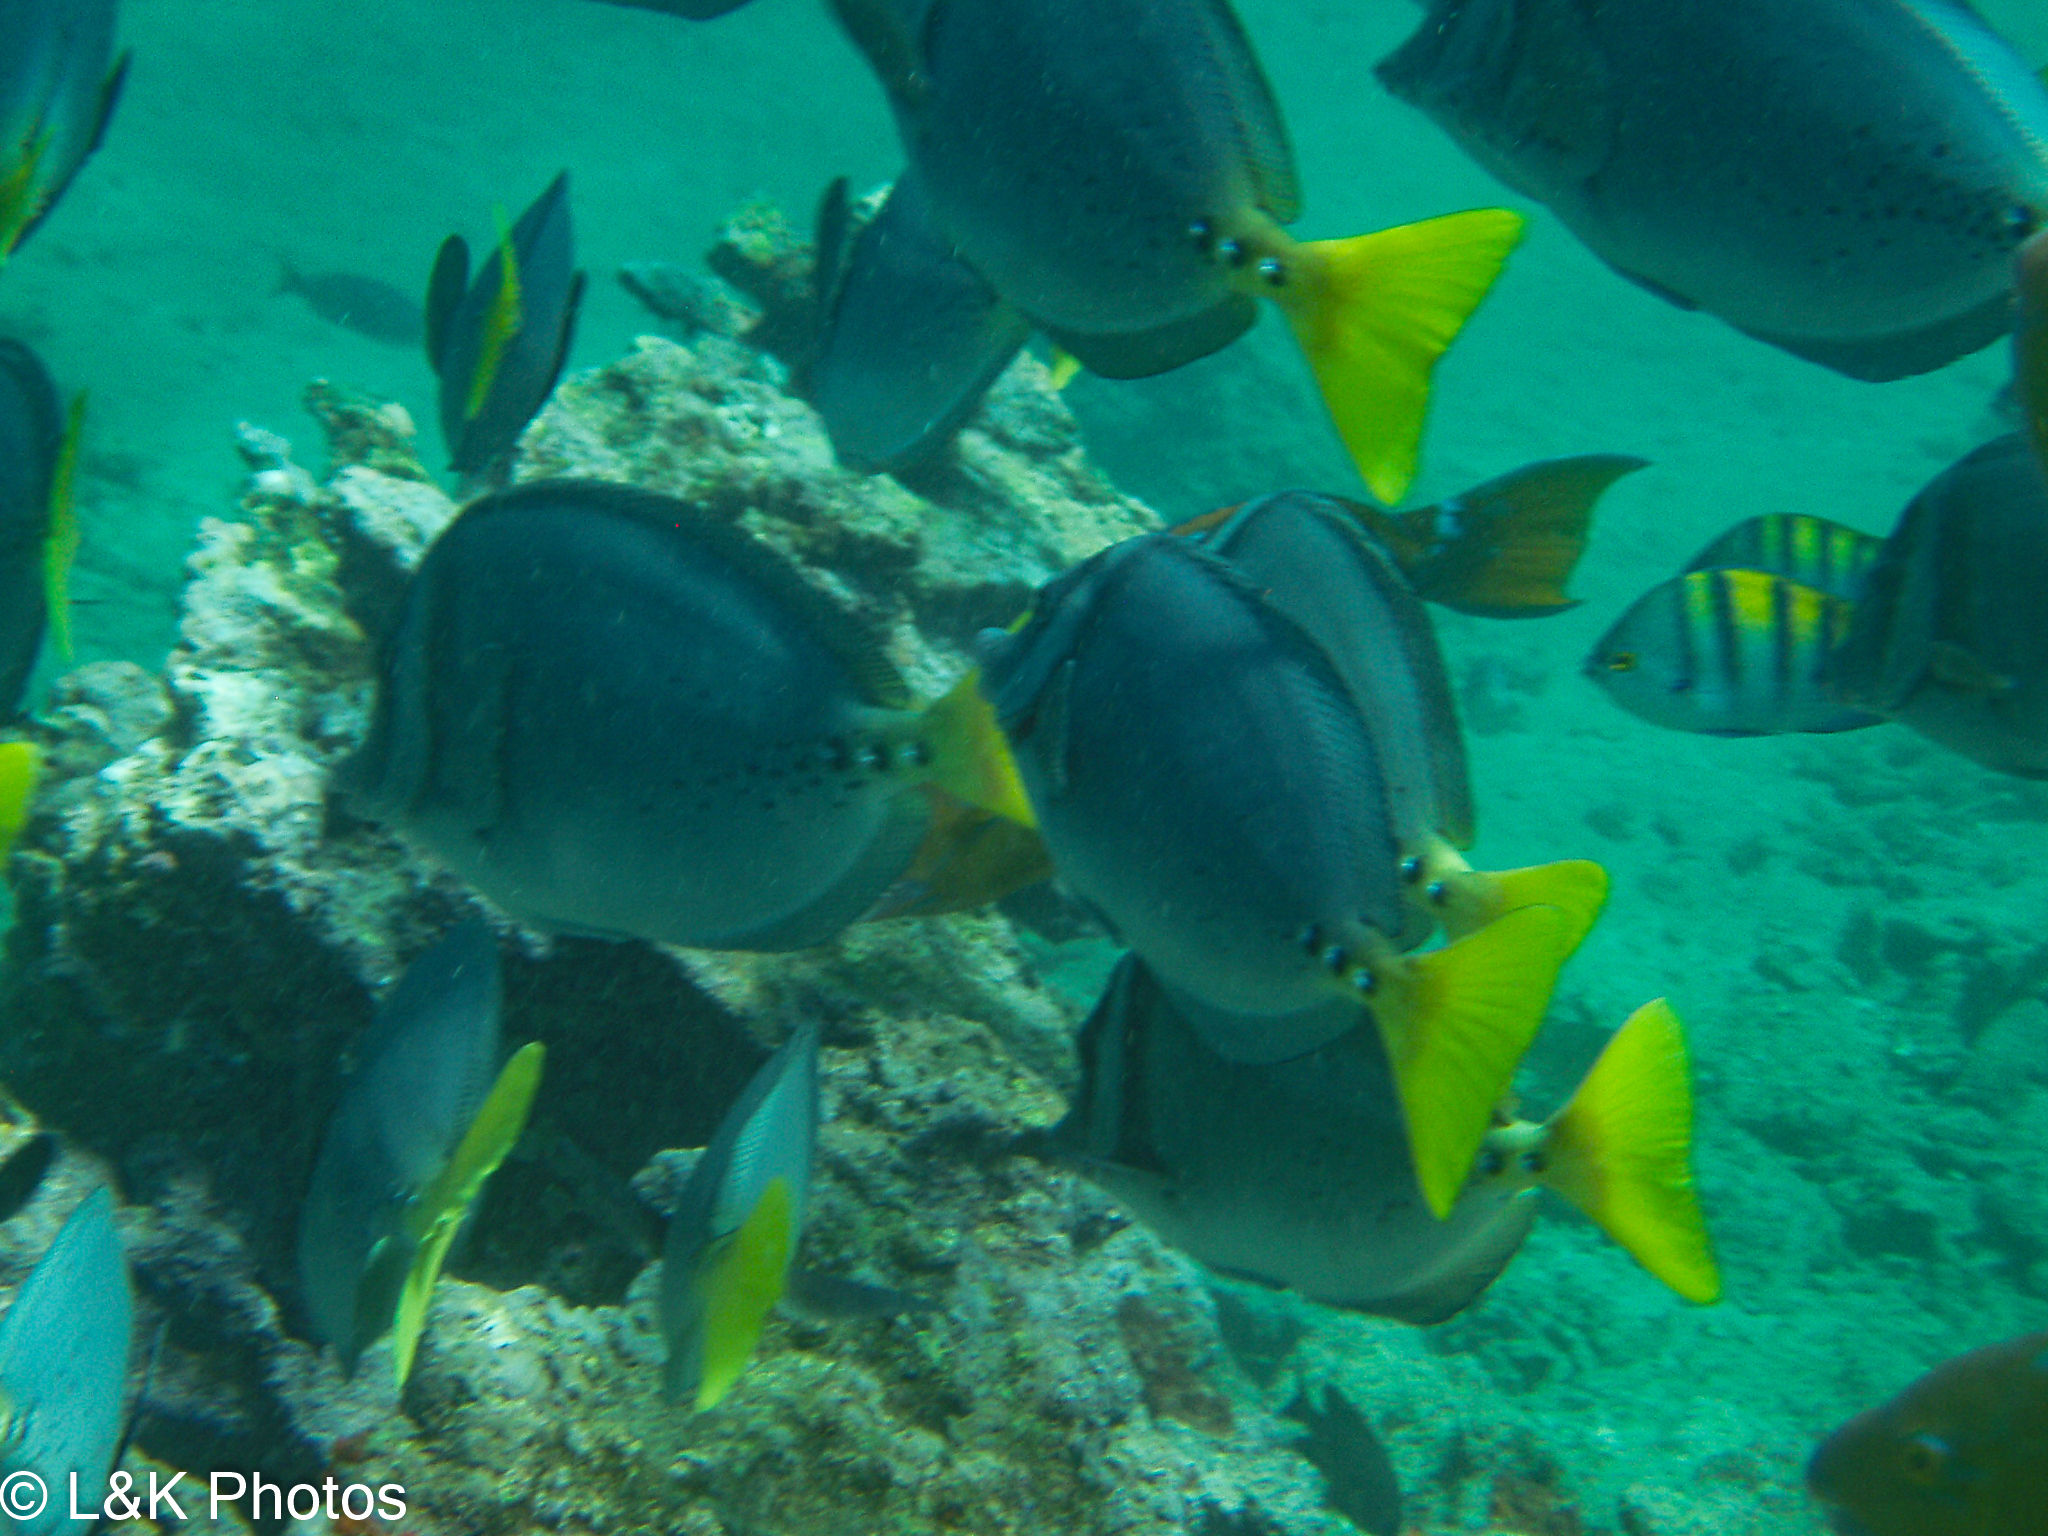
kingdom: Animalia
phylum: Chordata
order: Perciformes
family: Acanthuridae
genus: Prionurus
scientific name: Prionurus laticlavius
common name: Razor surgeonfish
